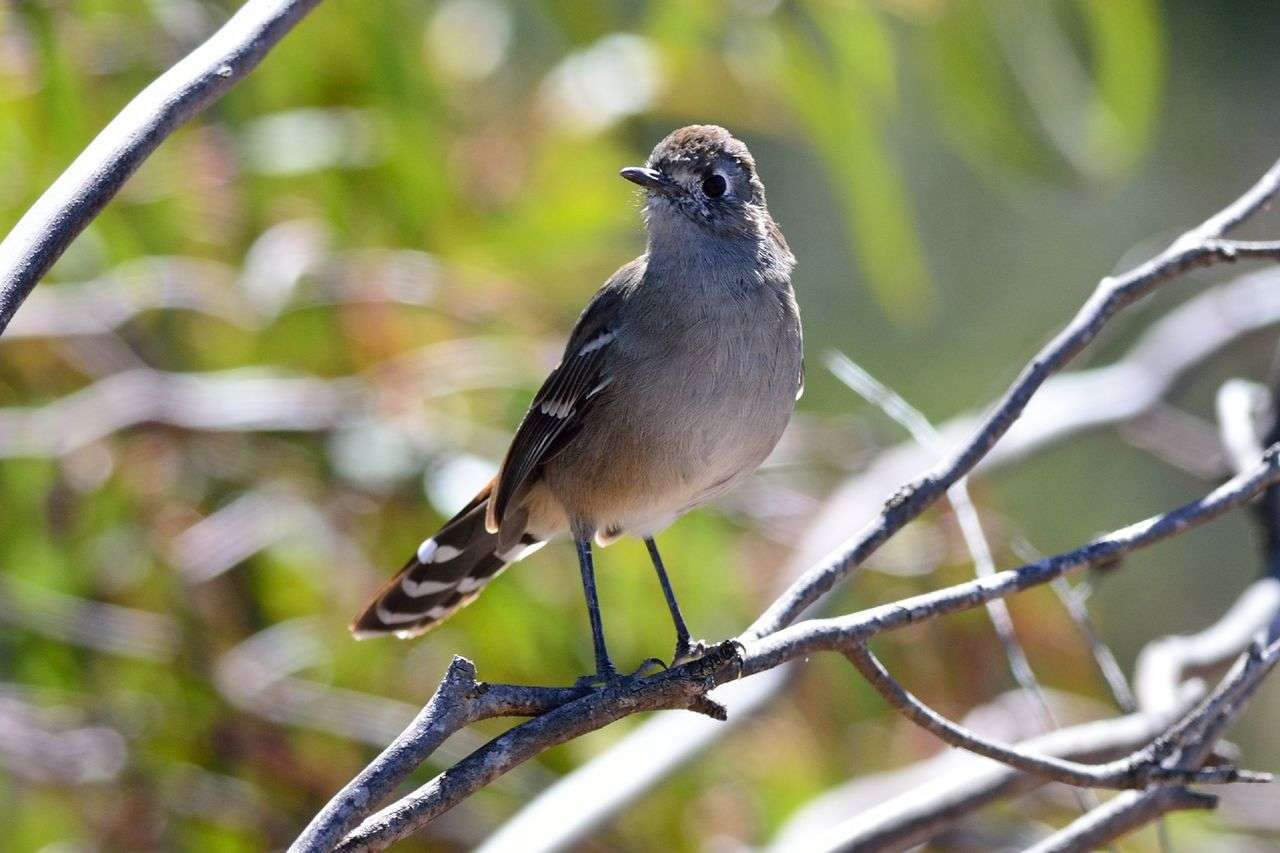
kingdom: Animalia
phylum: Chordata
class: Aves
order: Passeriformes
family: Petroicidae
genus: Drymodes
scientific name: Drymodes brunneopygia
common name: Southern scrub robin
